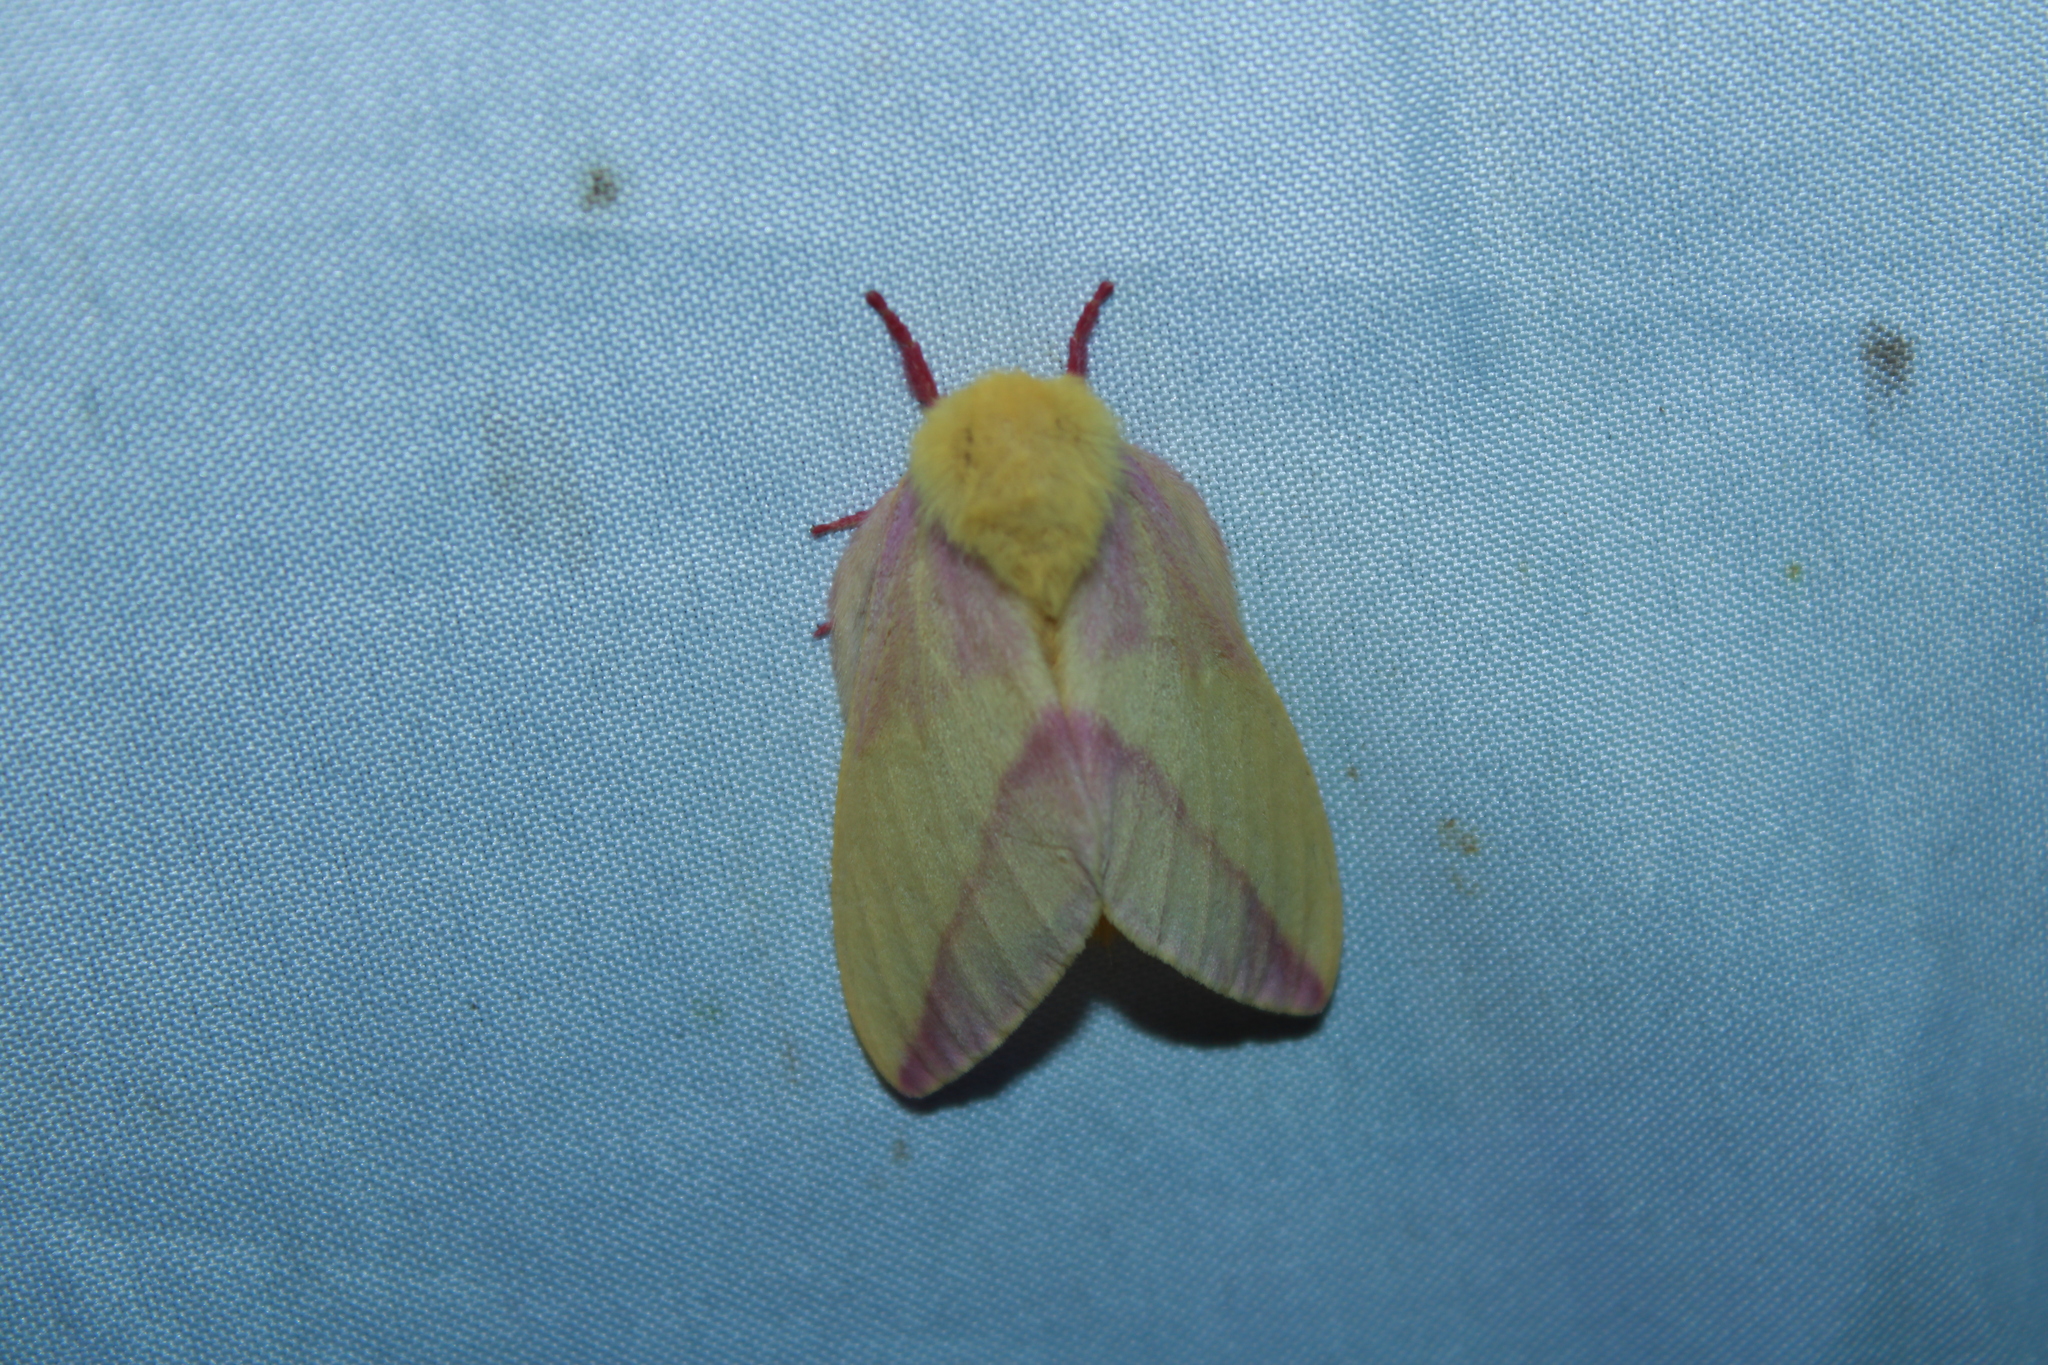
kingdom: Animalia
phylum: Arthropoda
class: Insecta
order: Lepidoptera
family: Saturniidae
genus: Dryocampa
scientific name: Dryocampa rubicunda
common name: Rosy maple moth
